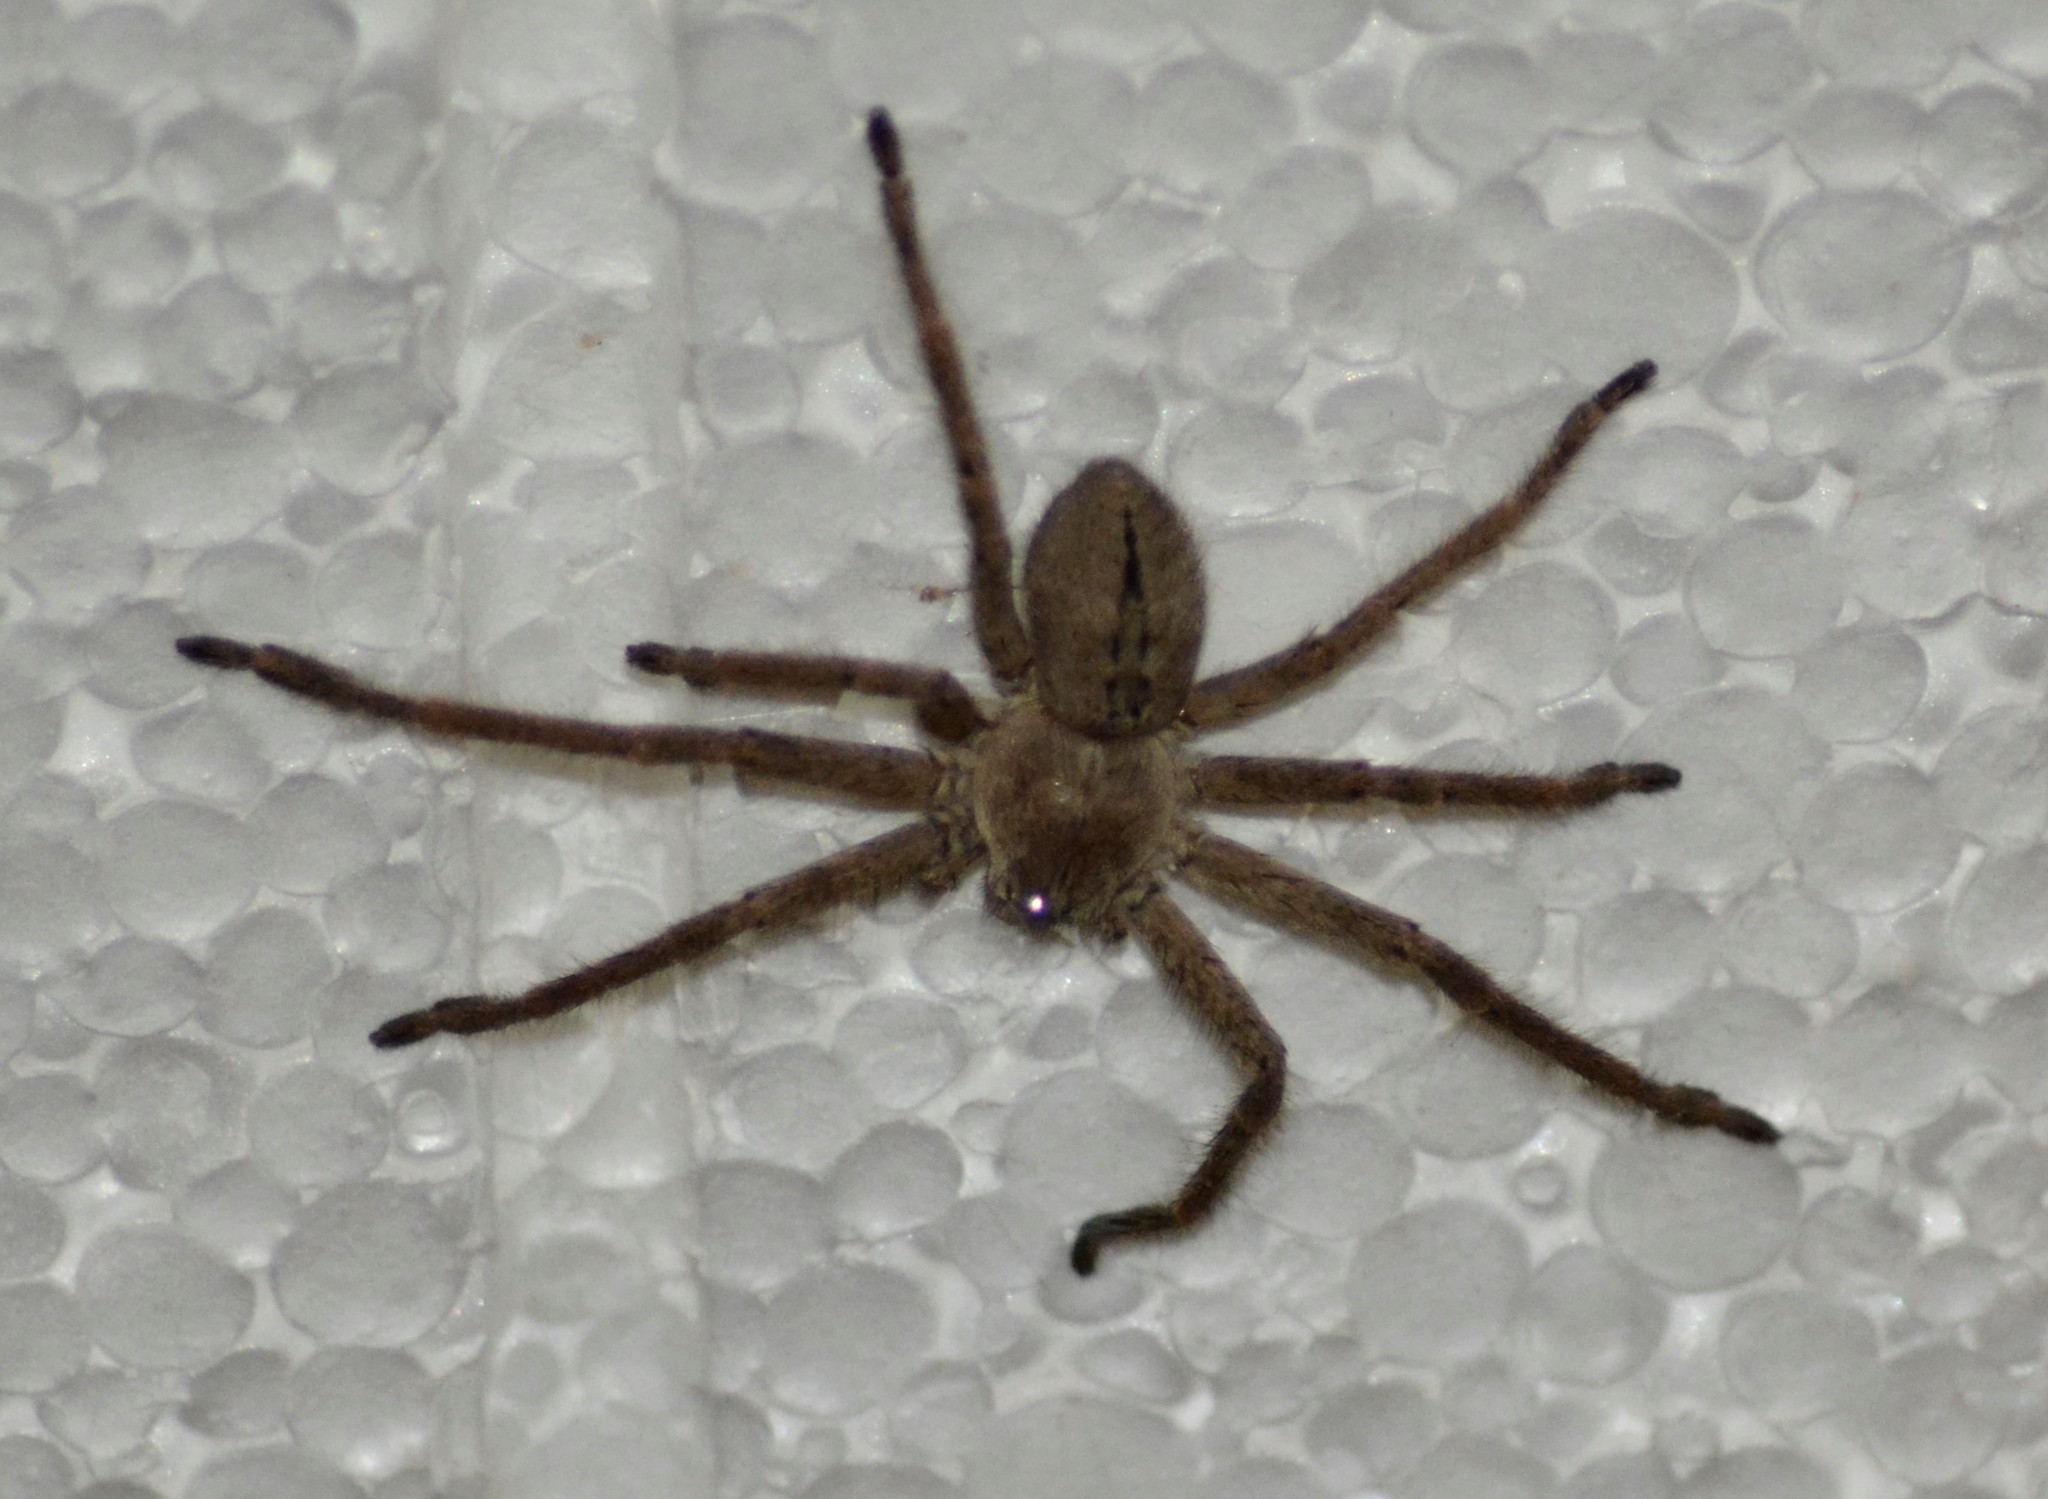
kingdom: Animalia
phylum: Arthropoda
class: Arachnida
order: Araneae
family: Sparassidae
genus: Polybetes
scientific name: Polybetes trifoveatus
